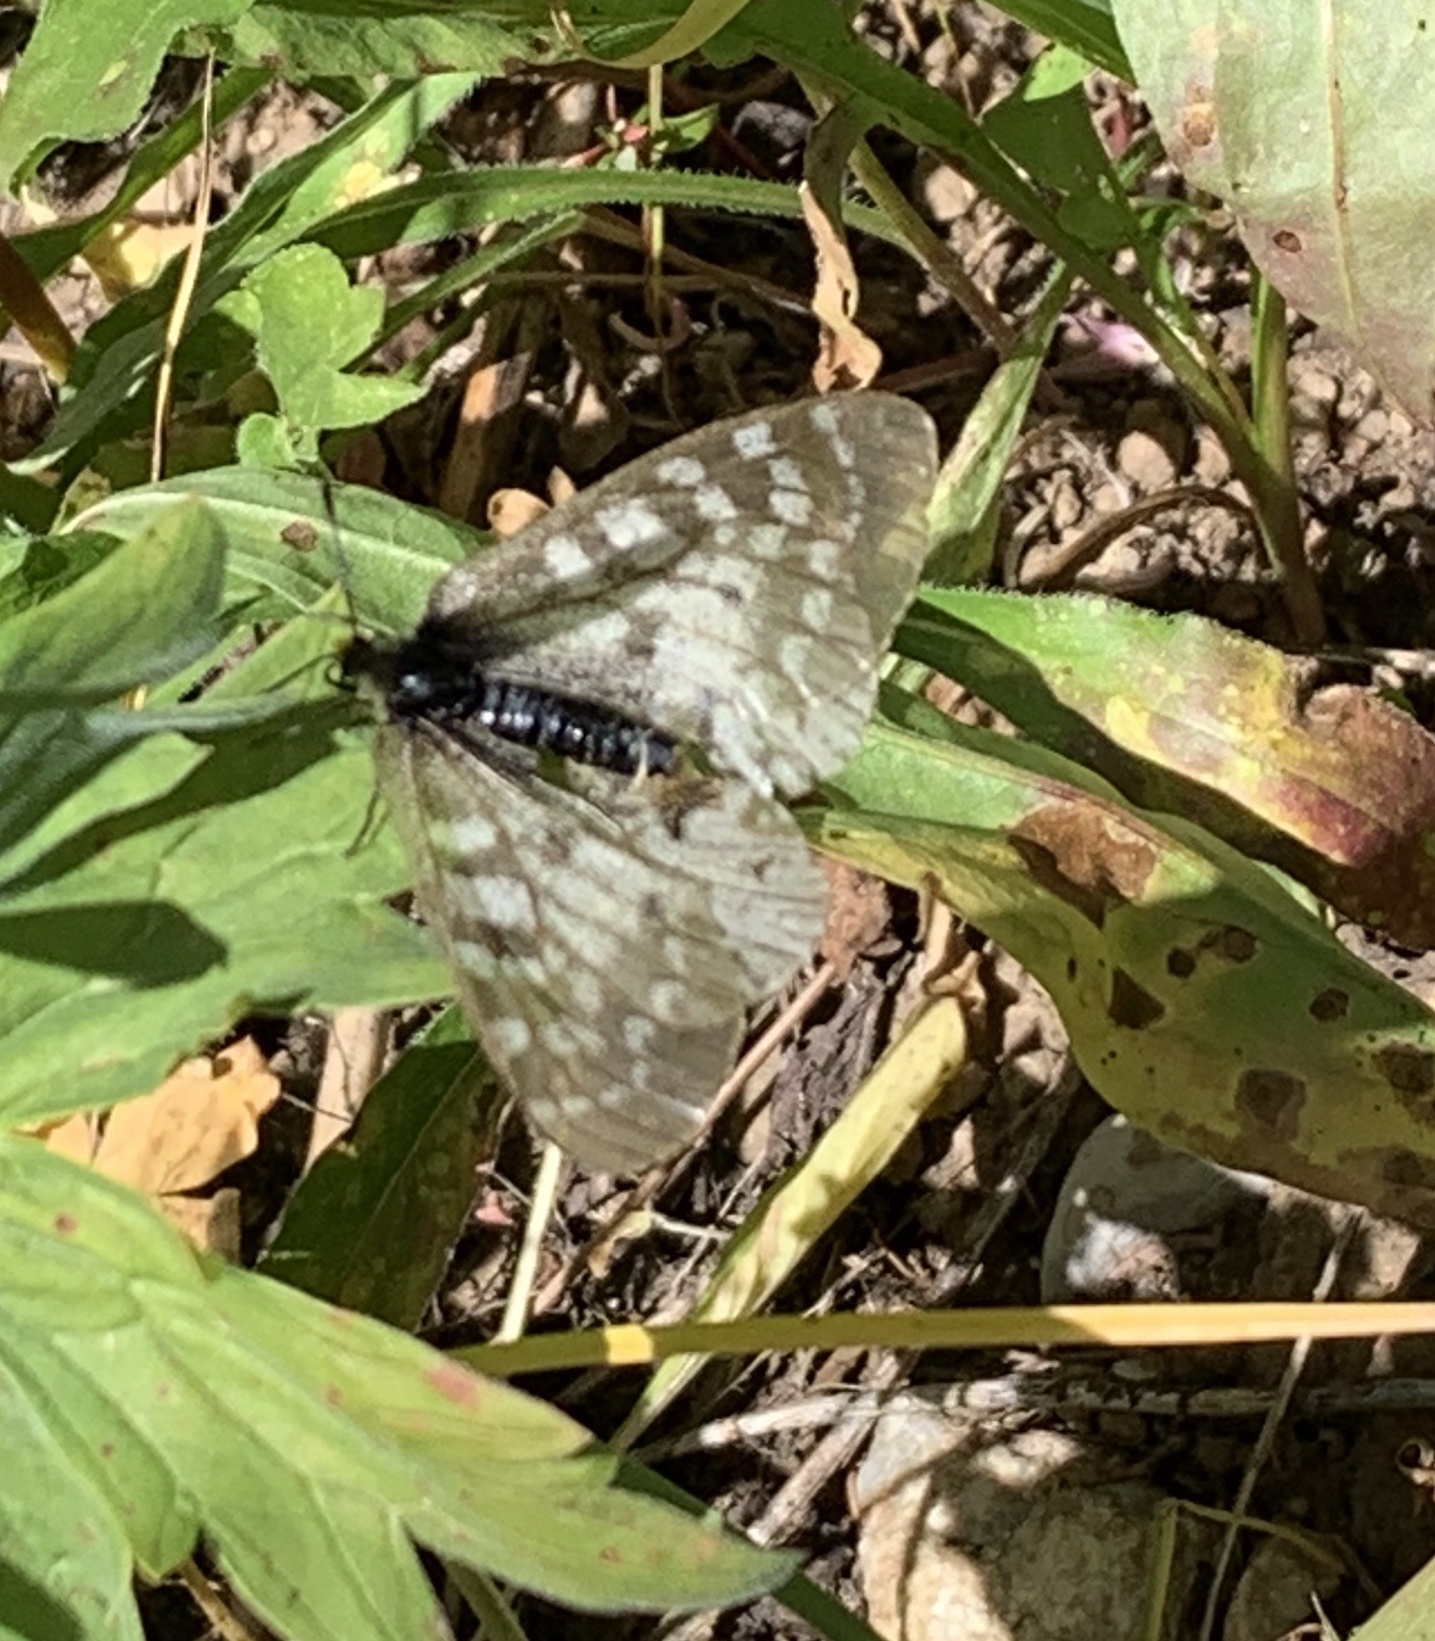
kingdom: Animalia
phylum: Arthropoda
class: Insecta
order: Lepidoptera
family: Papilionidae
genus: Parnassius
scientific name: Parnassius clodius
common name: American apollo
